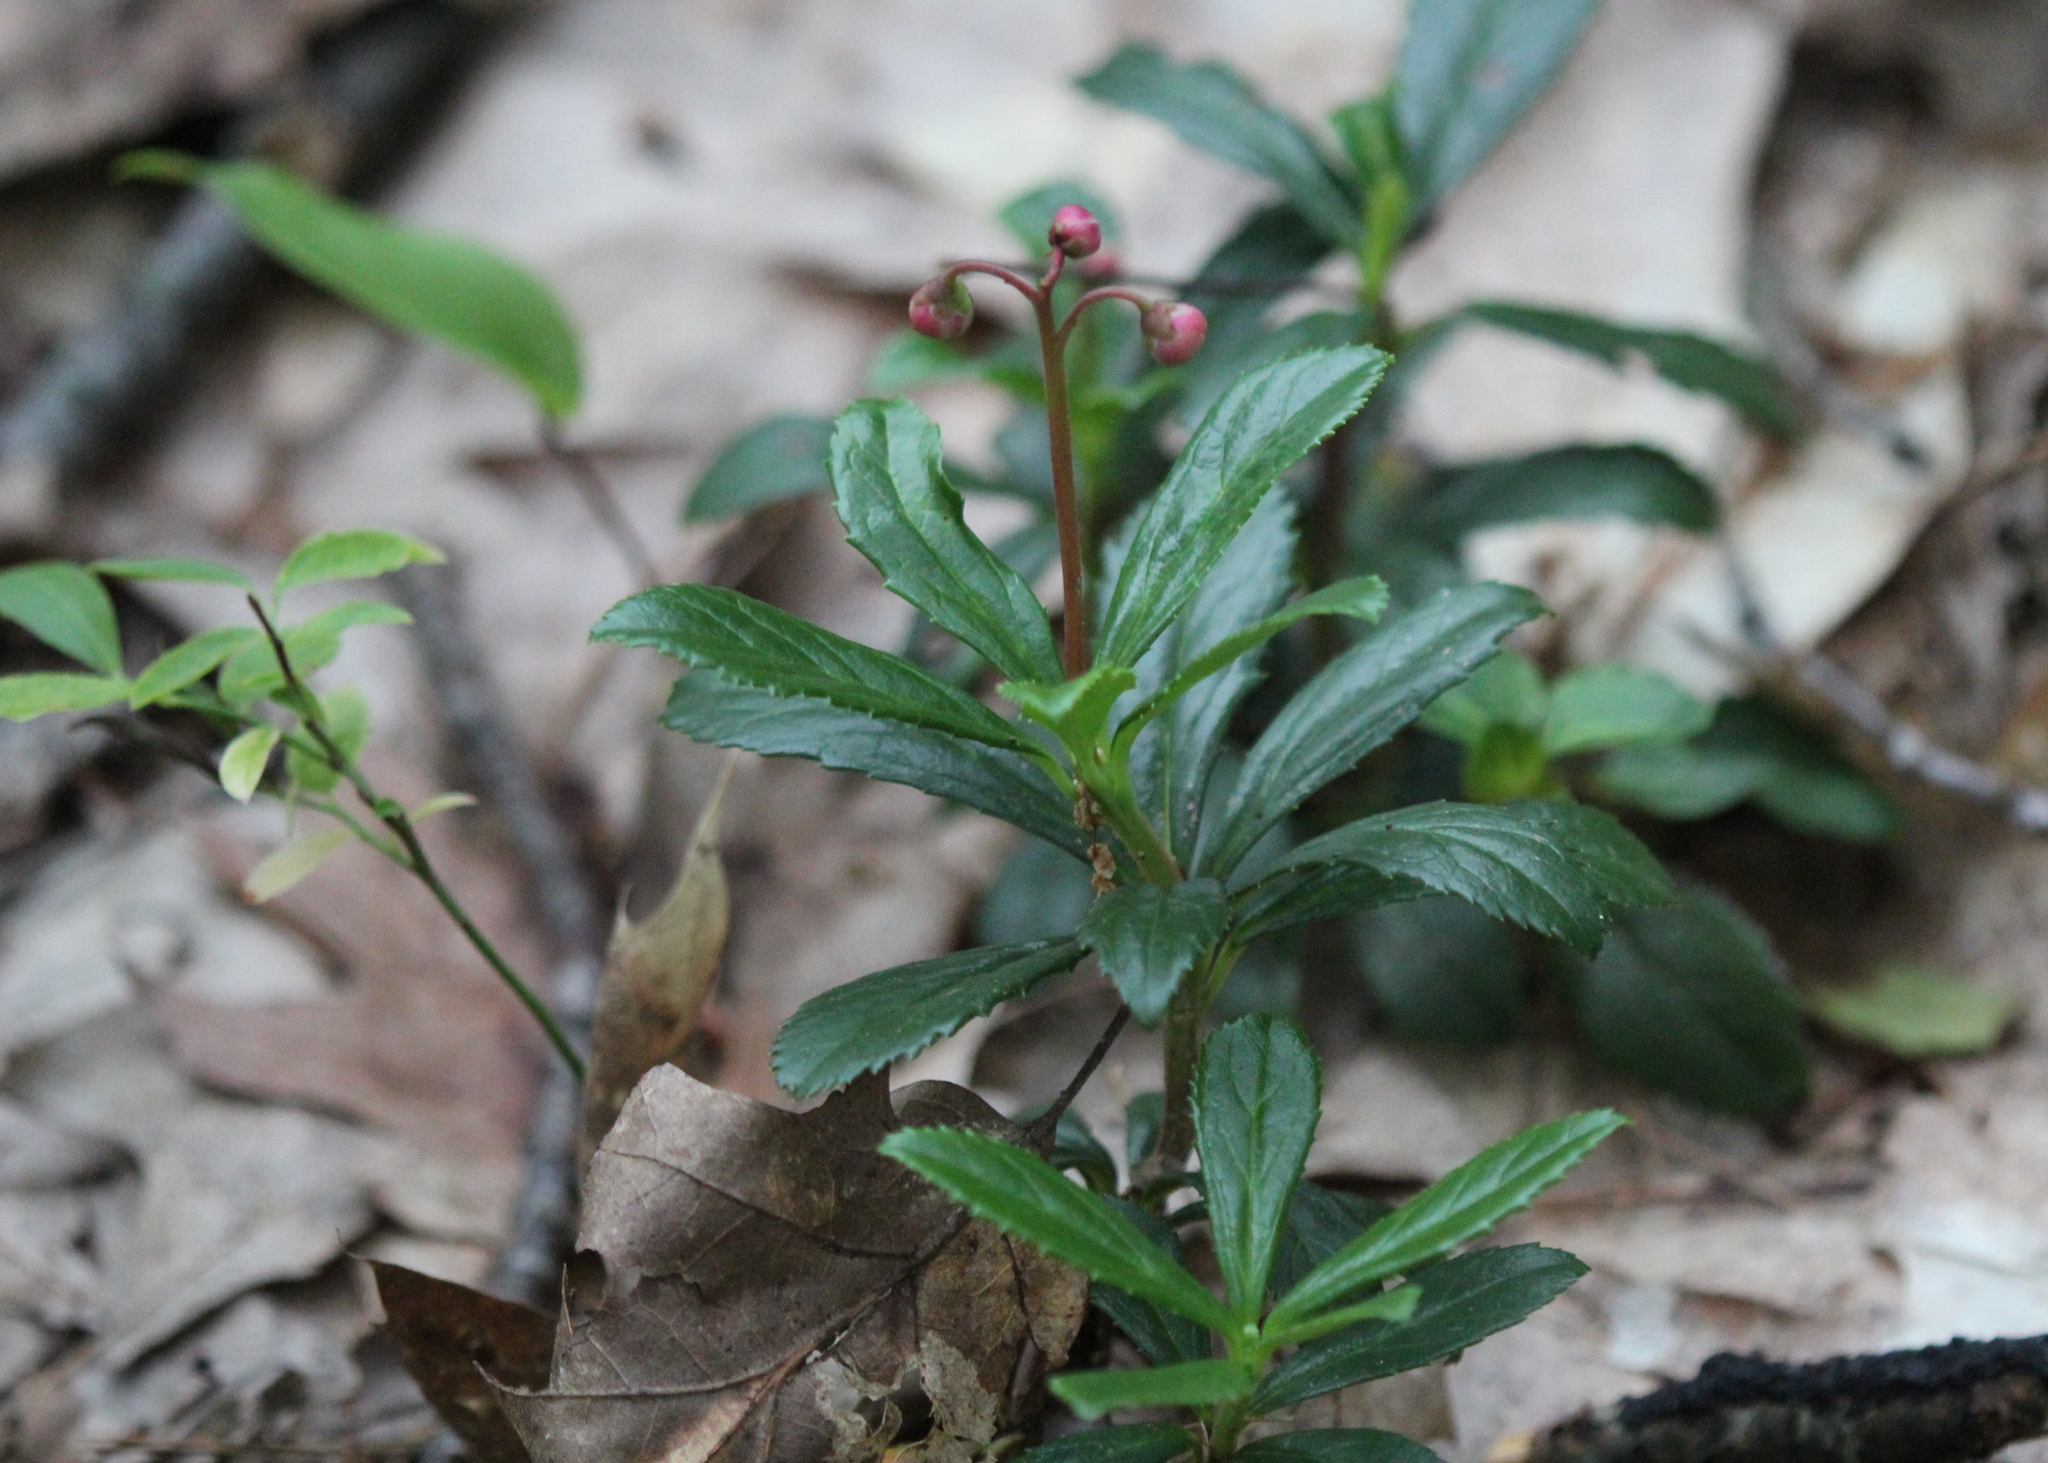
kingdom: Plantae
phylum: Tracheophyta
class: Magnoliopsida
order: Ericales
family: Ericaceae
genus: Chimaphila
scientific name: Chimaphila umbellata
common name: Pipsissewa
